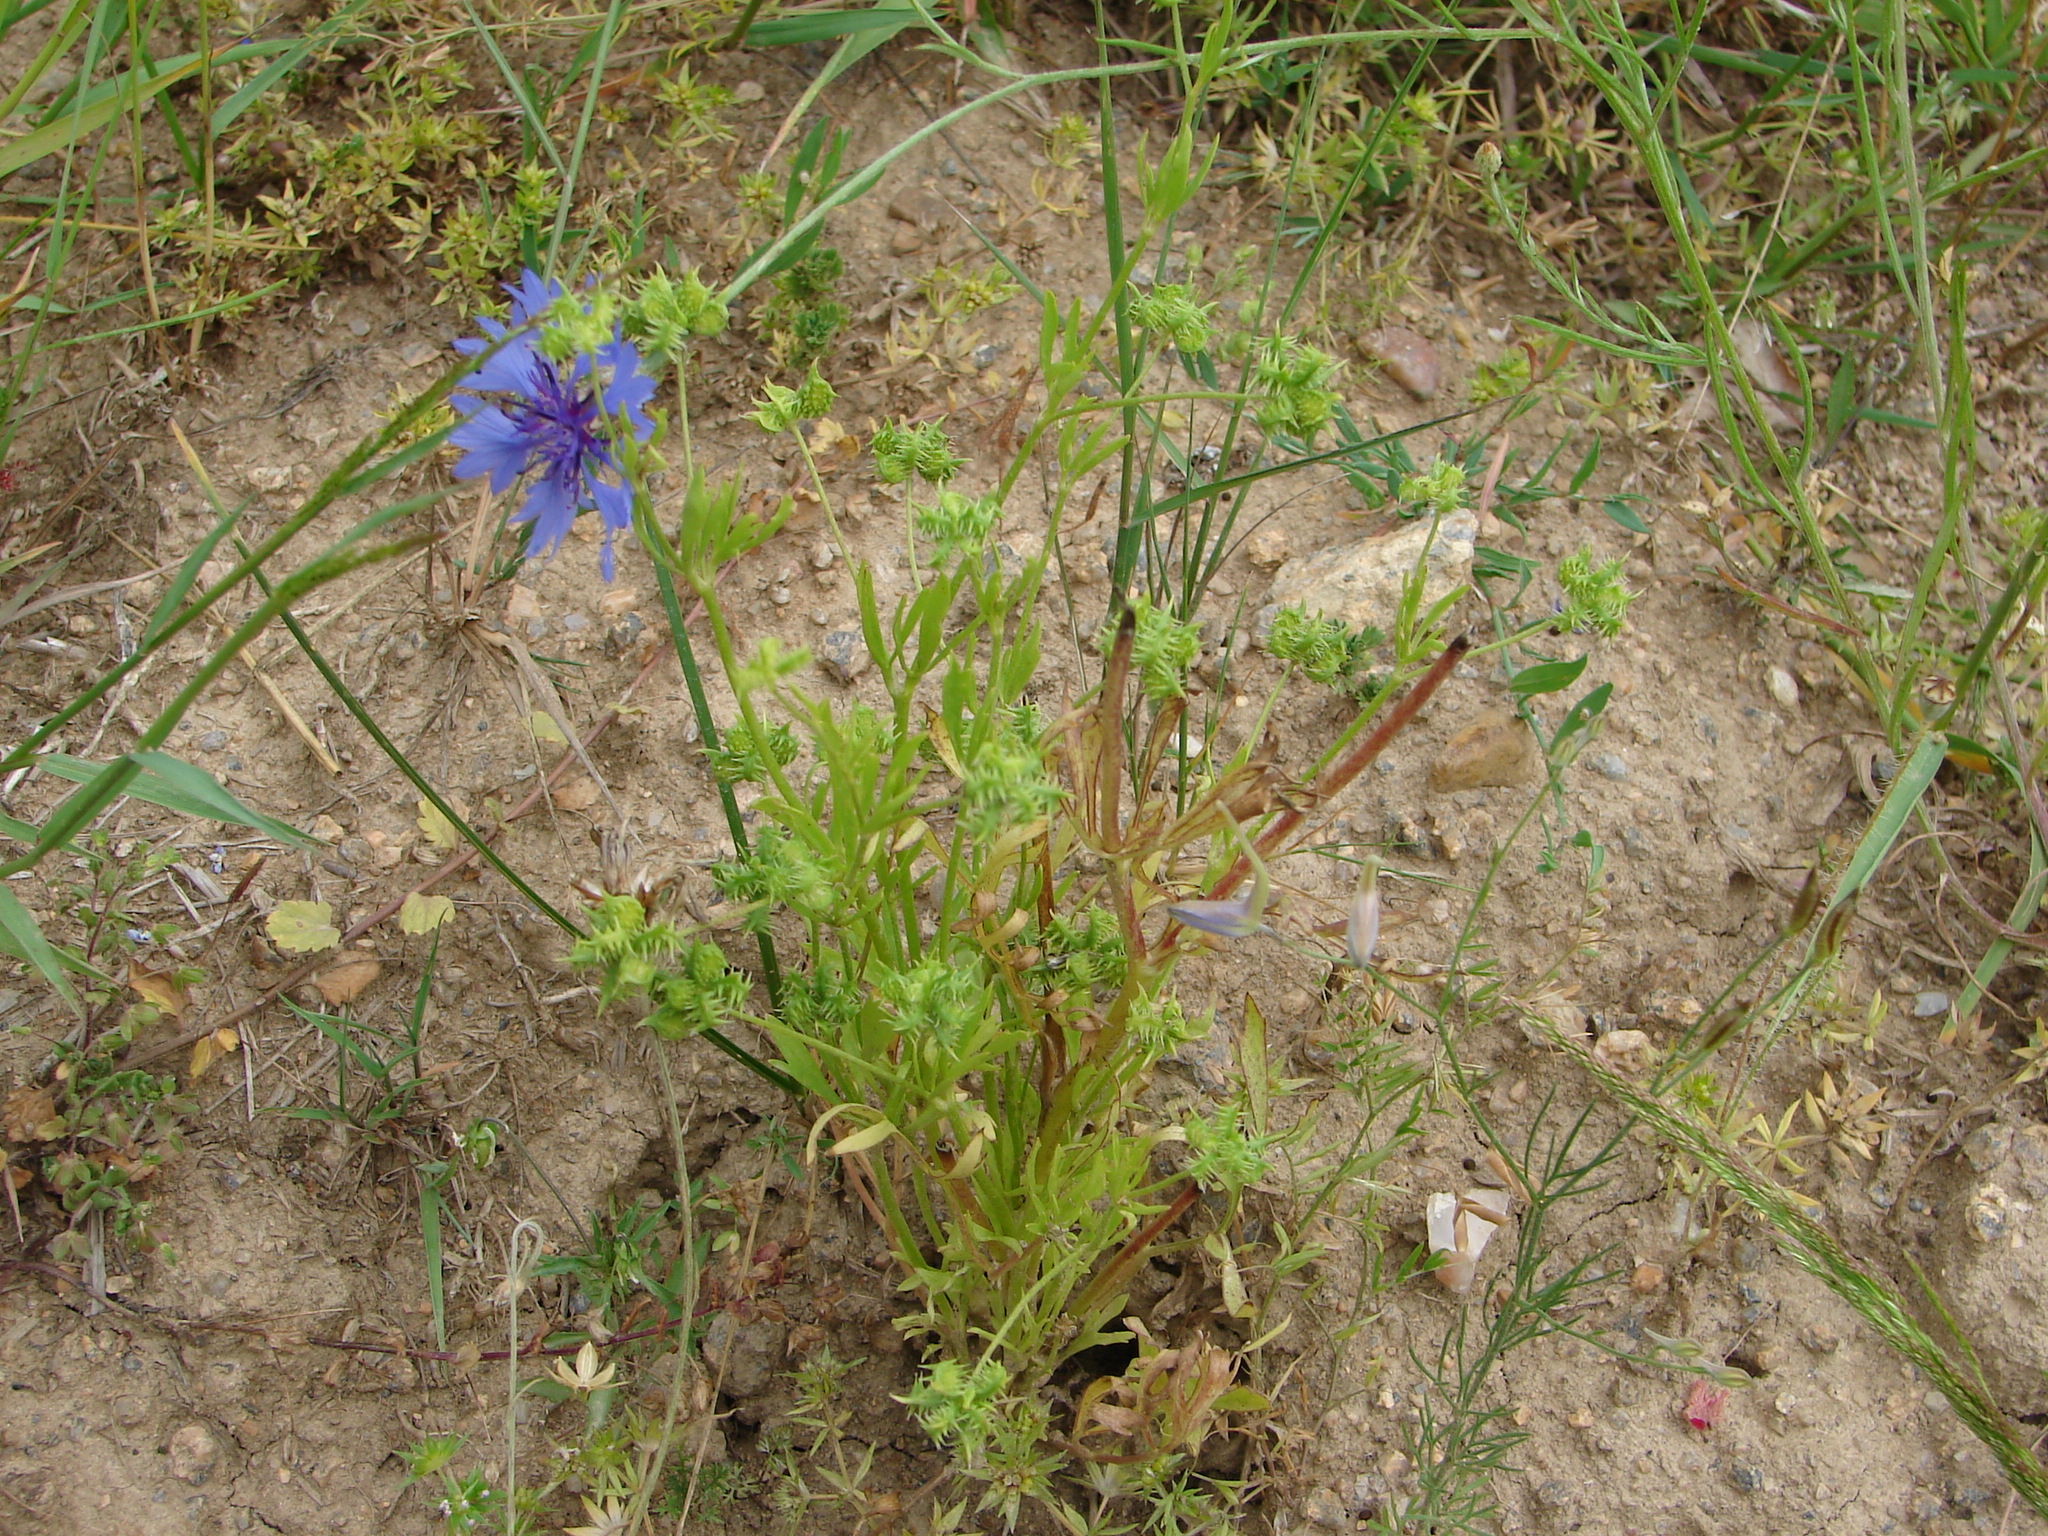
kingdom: Plantae
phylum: Tracheophyta
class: Magnoliopsida
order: Ranunculales
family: Ranunculaceae
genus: Ranunculus
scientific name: Ranunculus arvensis
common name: Corn buttercup
